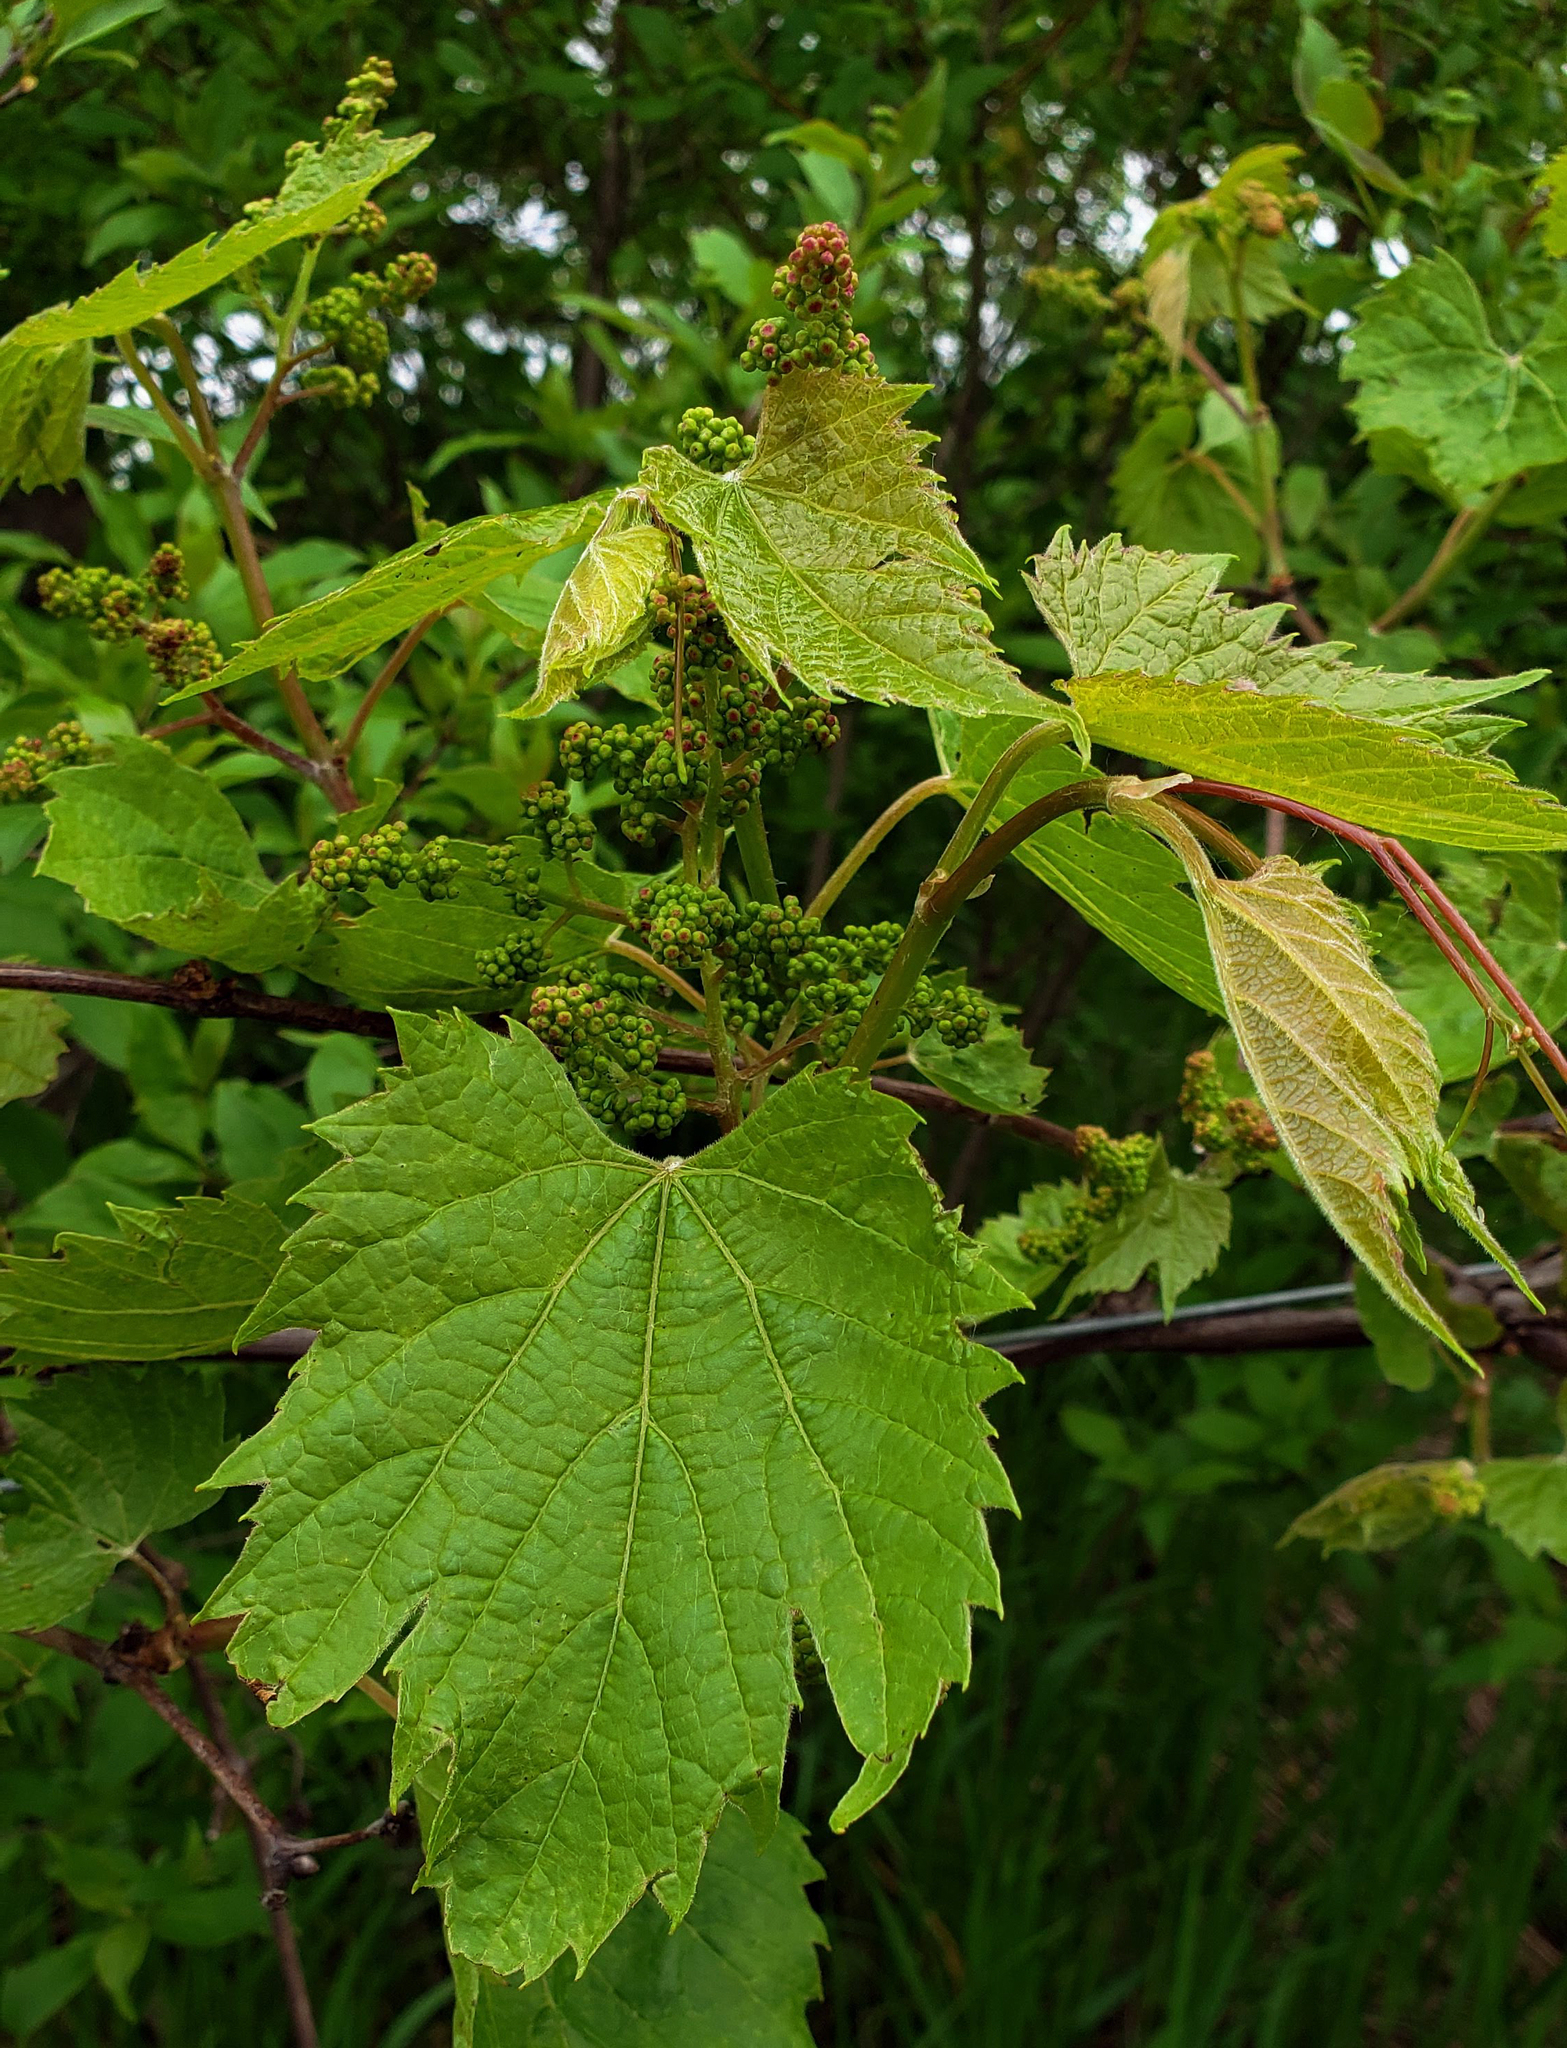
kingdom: Plantae
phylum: Tracheophyta
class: Magnoliopsida
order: Vitales
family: Vitaceae
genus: Vitis
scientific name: Vitis riparia
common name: Frost grape
